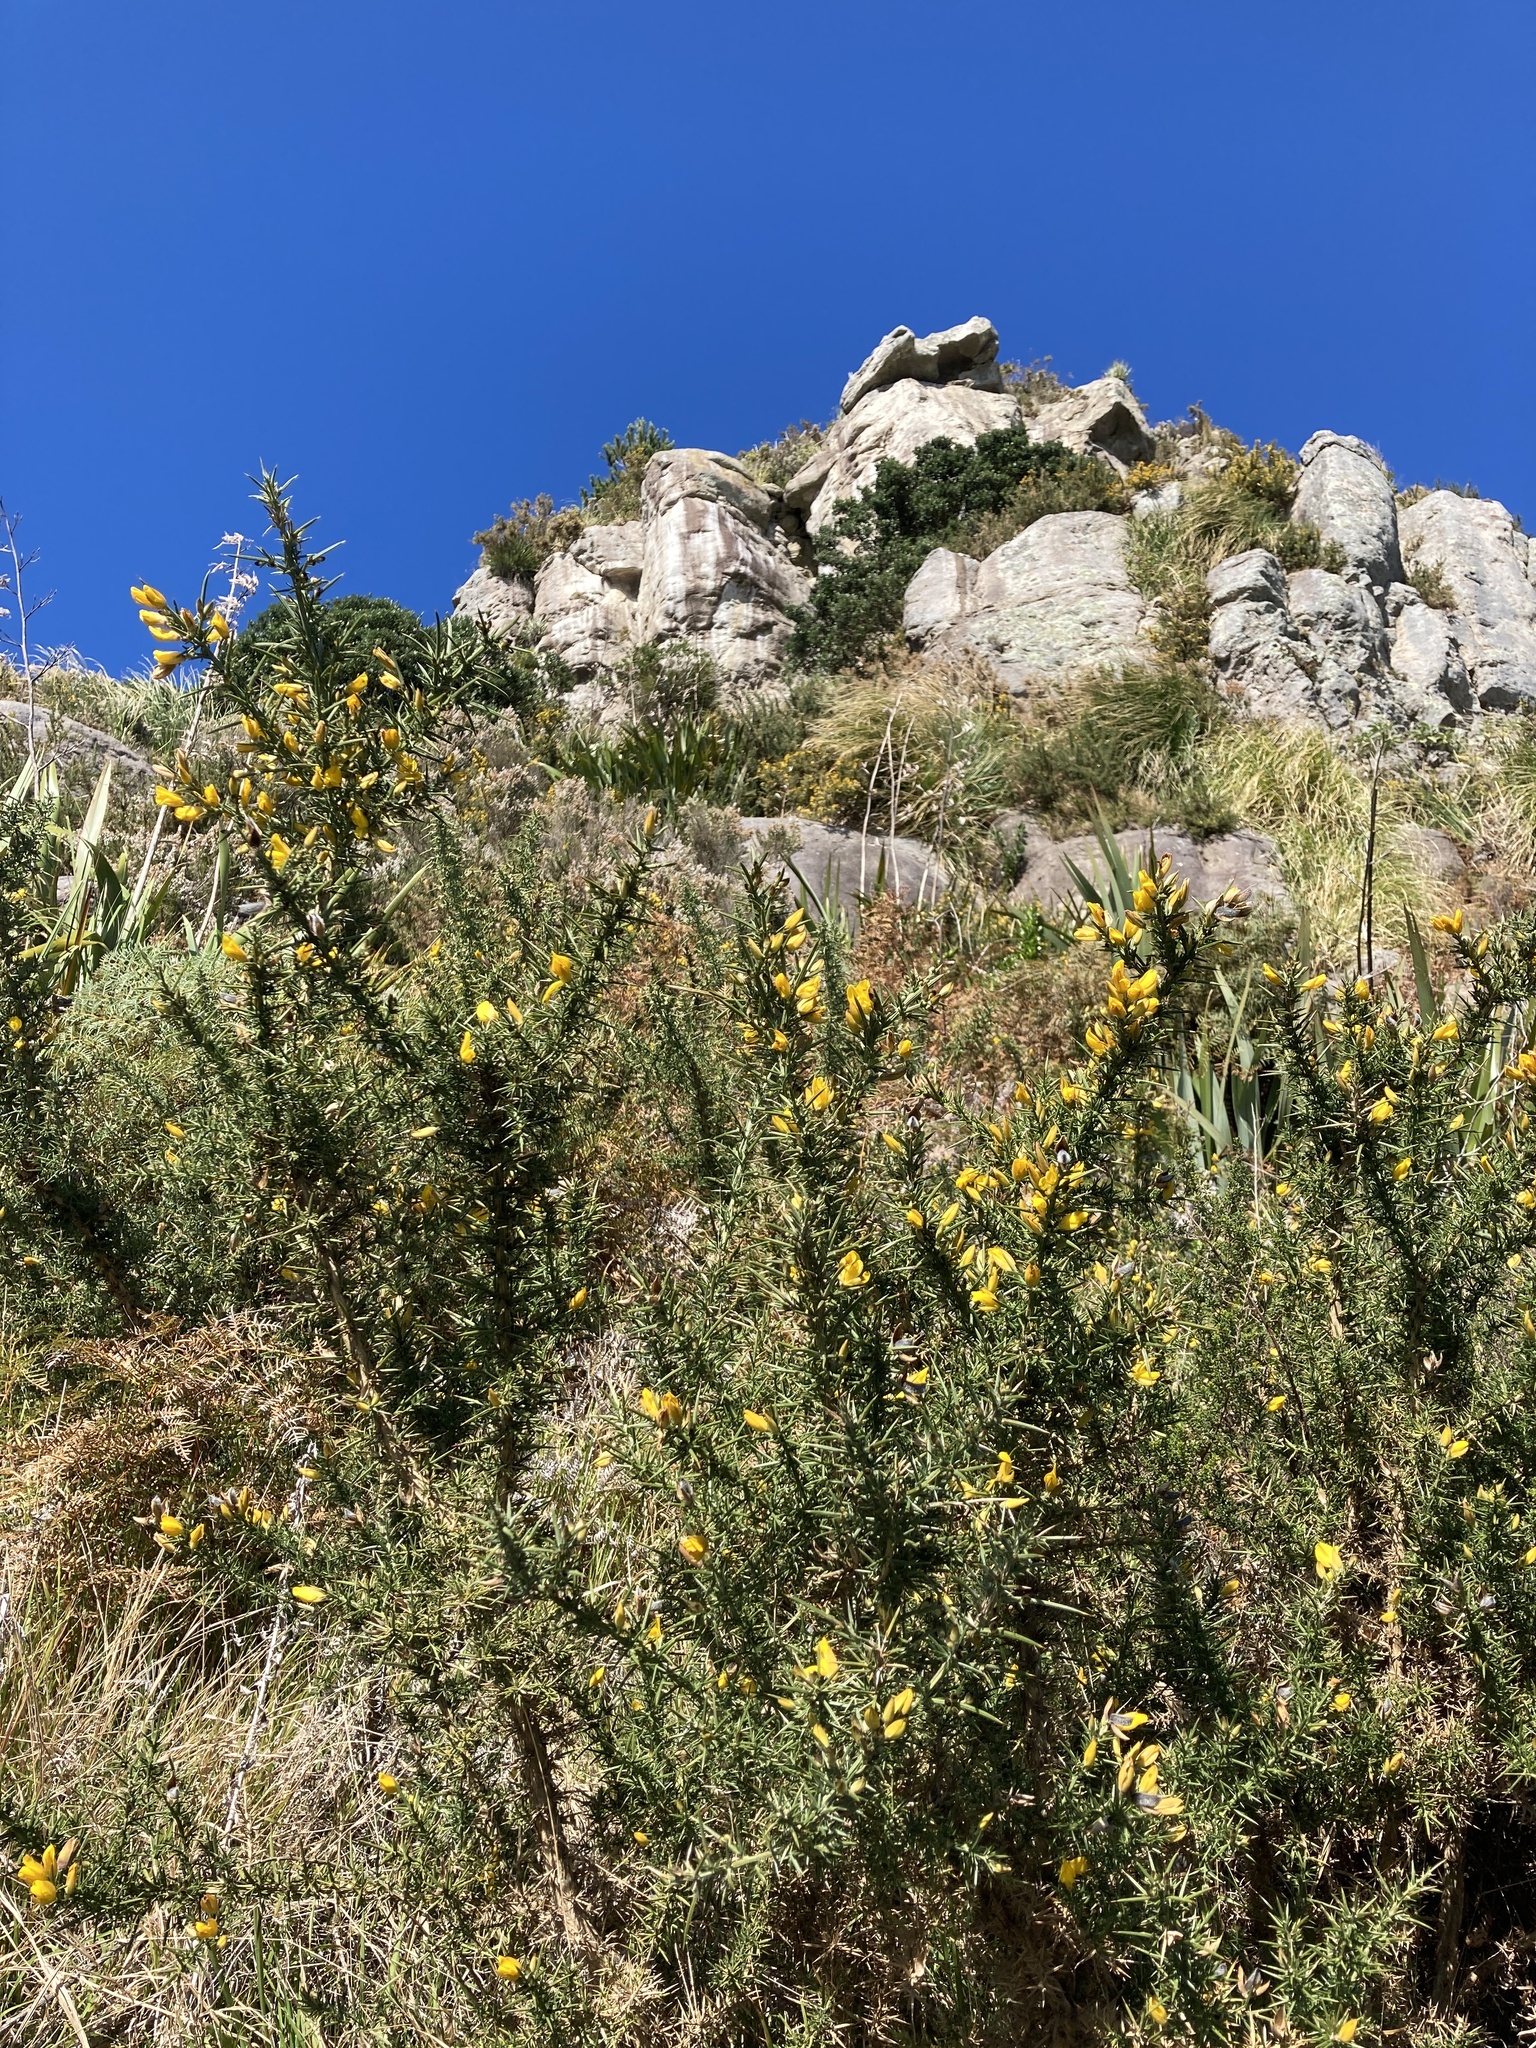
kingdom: Plantae
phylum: Tracheophyta
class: Magnoliopsida
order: Fabales
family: Fabaceae
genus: Ulex
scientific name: Ulex europaeus
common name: Common gorse
